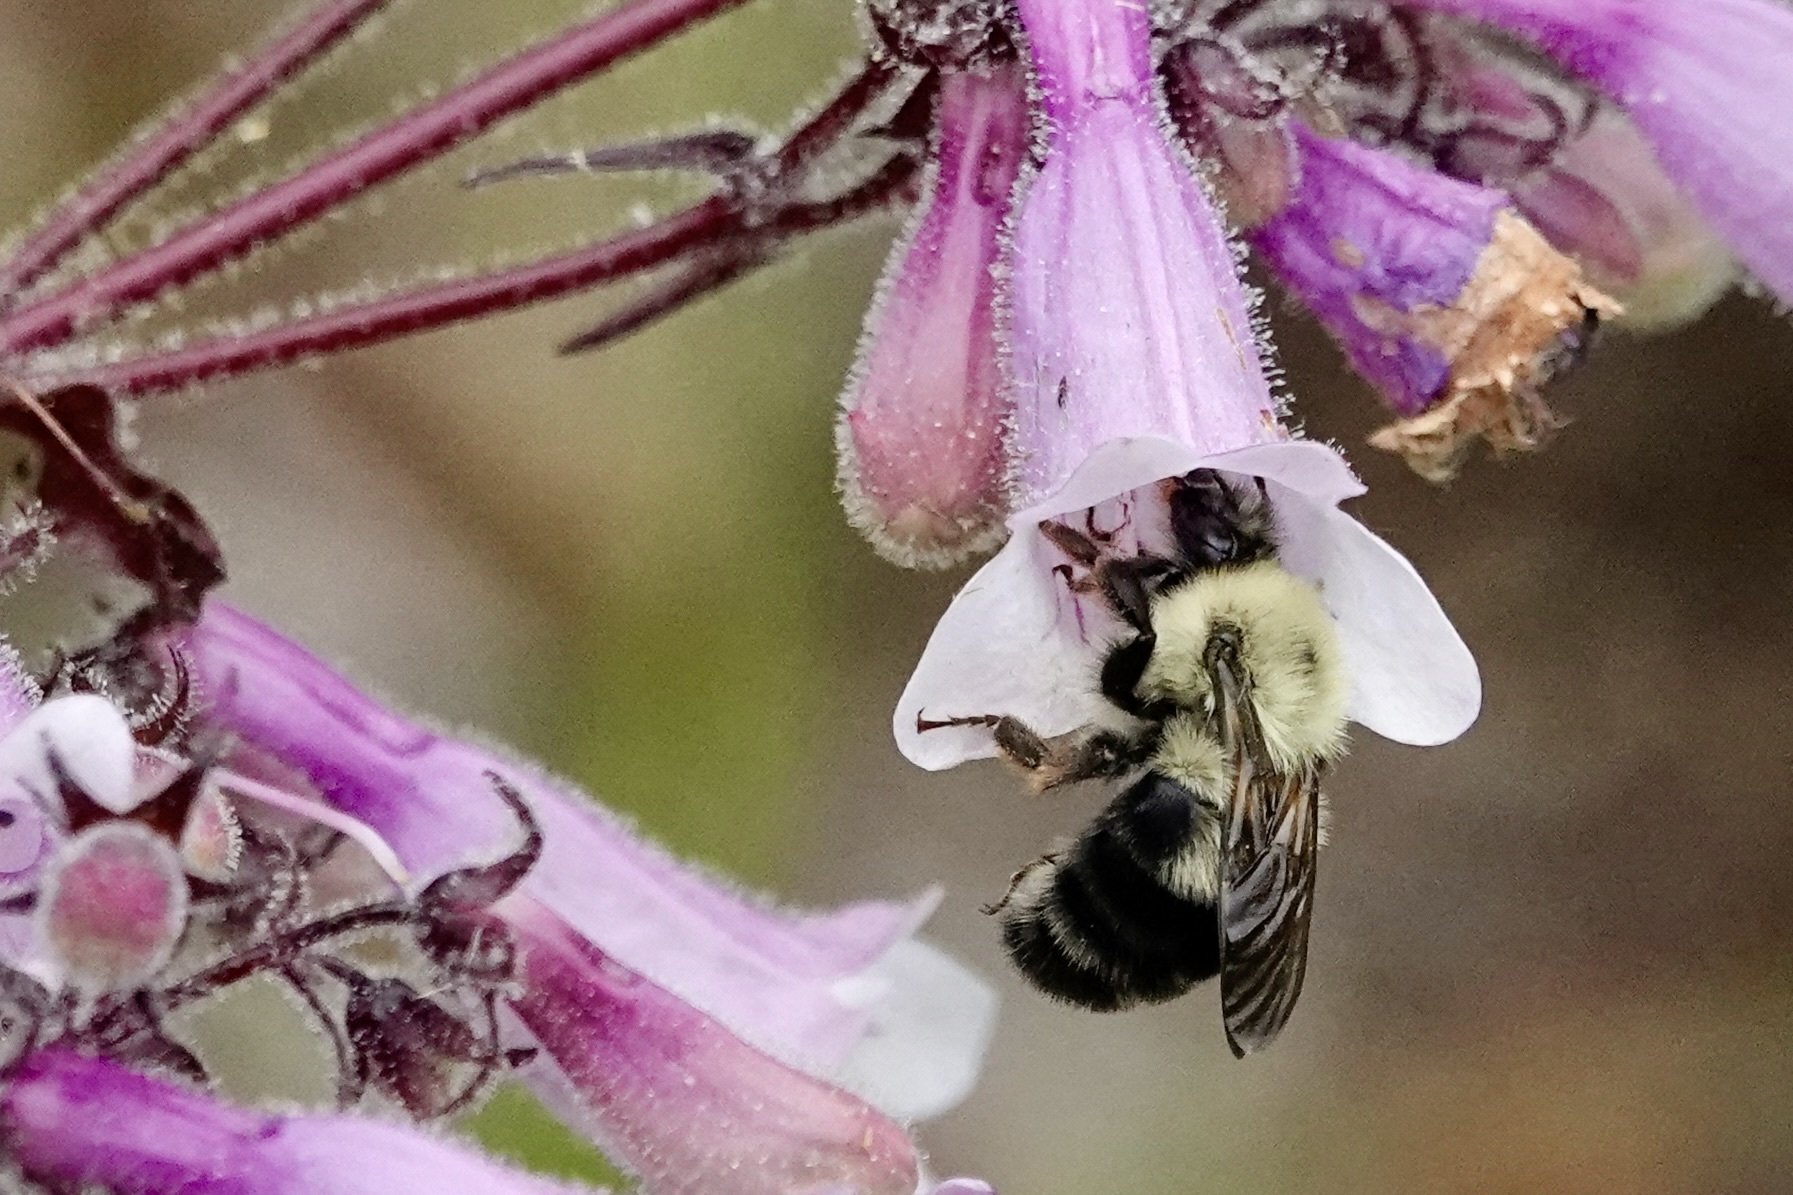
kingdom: Animalia
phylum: Arthropoda
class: Insecta
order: Hymenoptera
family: Apidae
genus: Bombus
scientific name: Bombus bimaculatus
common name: Two-spotted bumble bee
